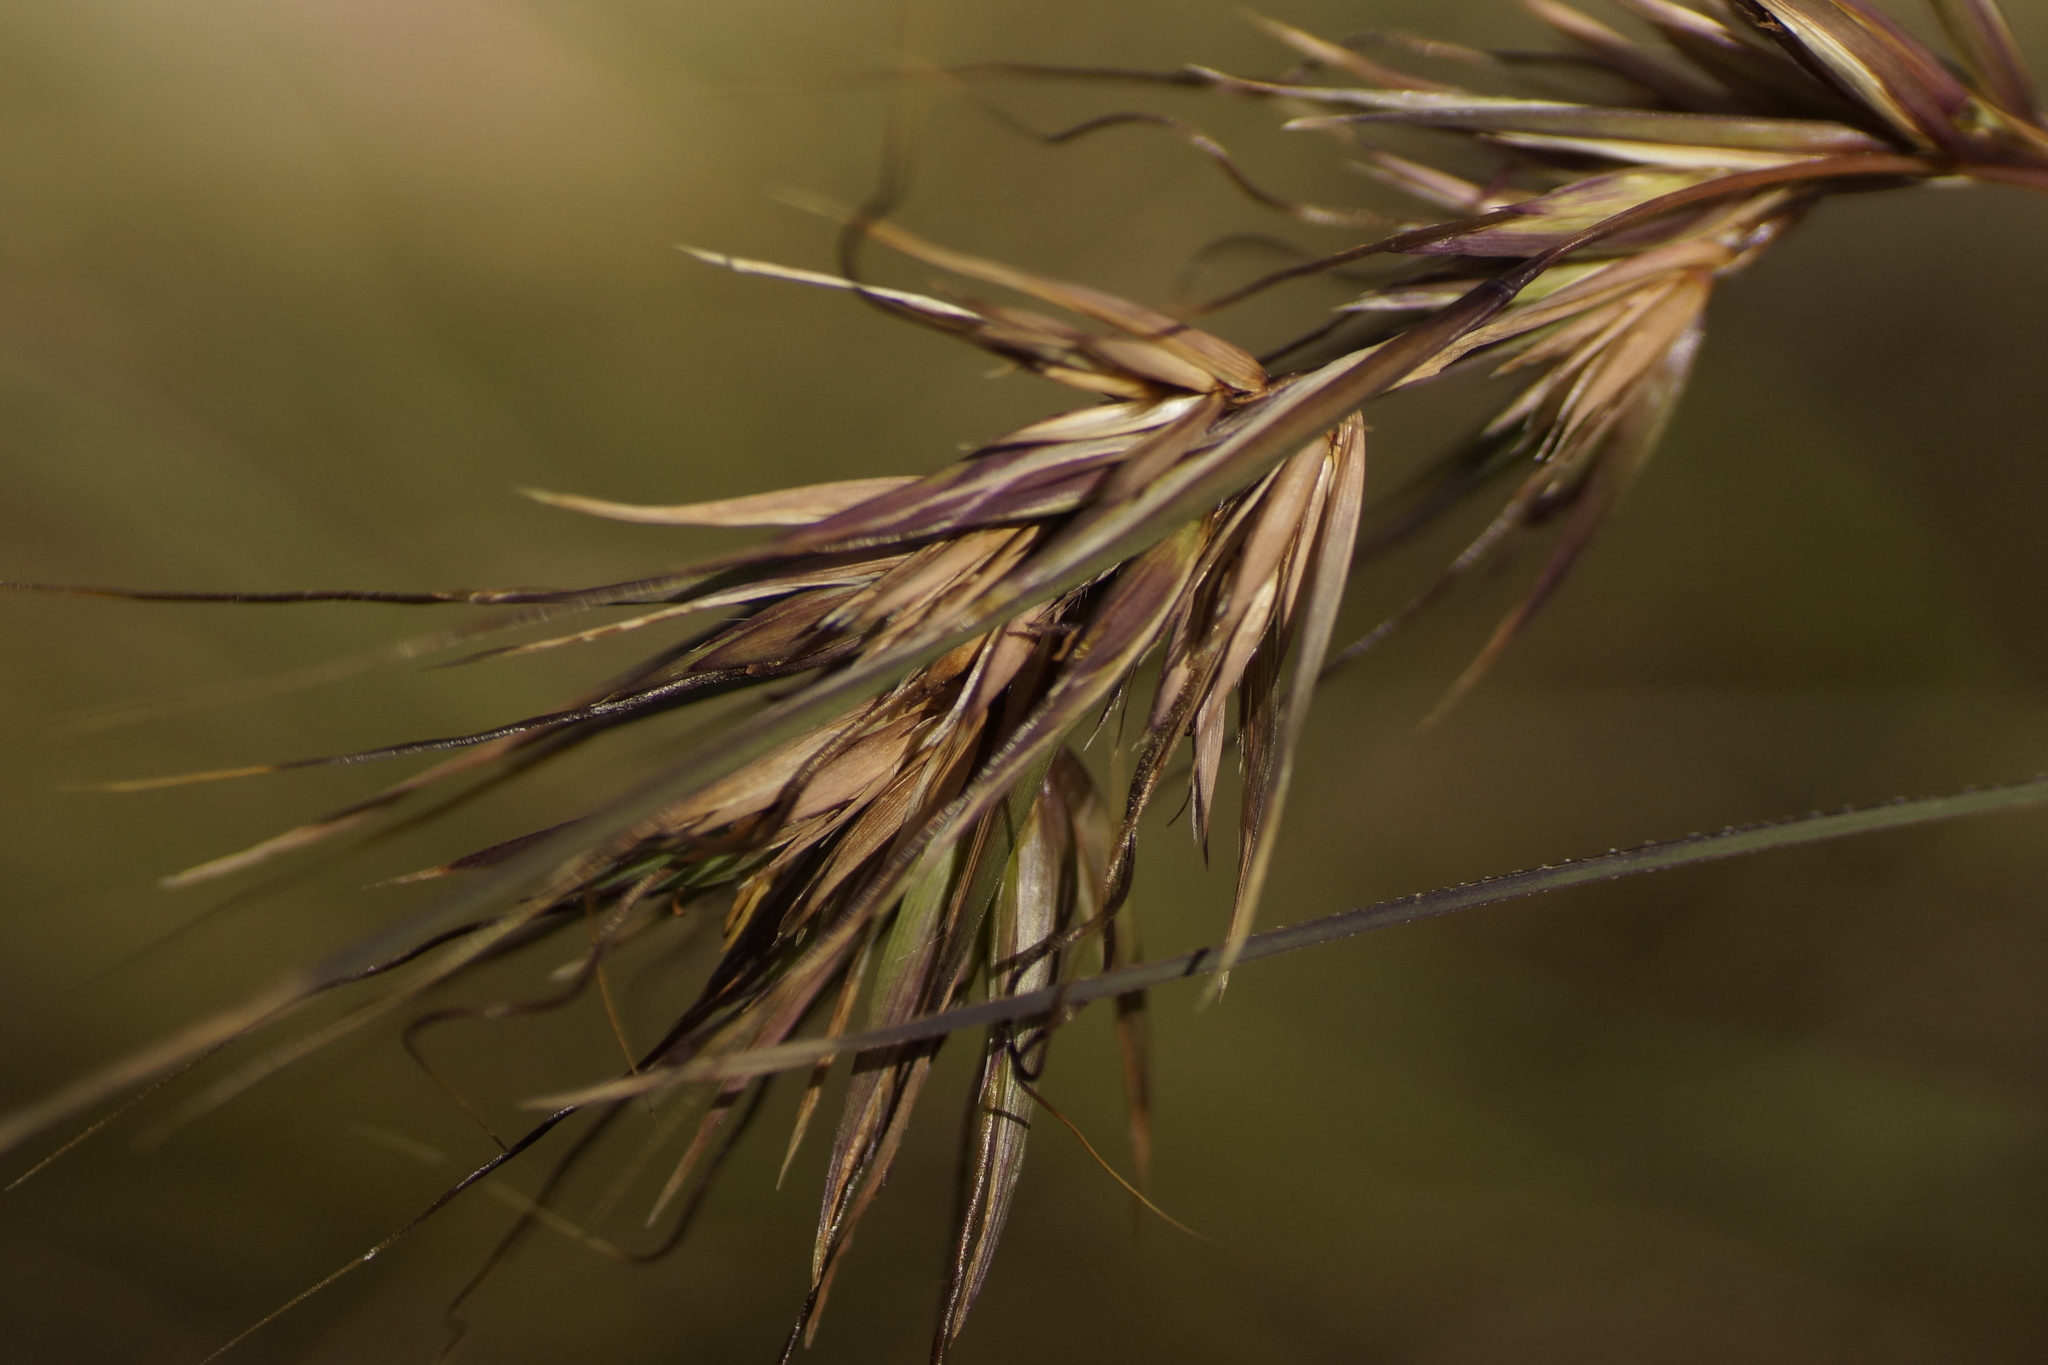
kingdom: Plantae
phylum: Tracheophyta
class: Liliopsida
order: Poales
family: Poaceae
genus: Themeda
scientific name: Themeda triandra
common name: Kangaroo grass
